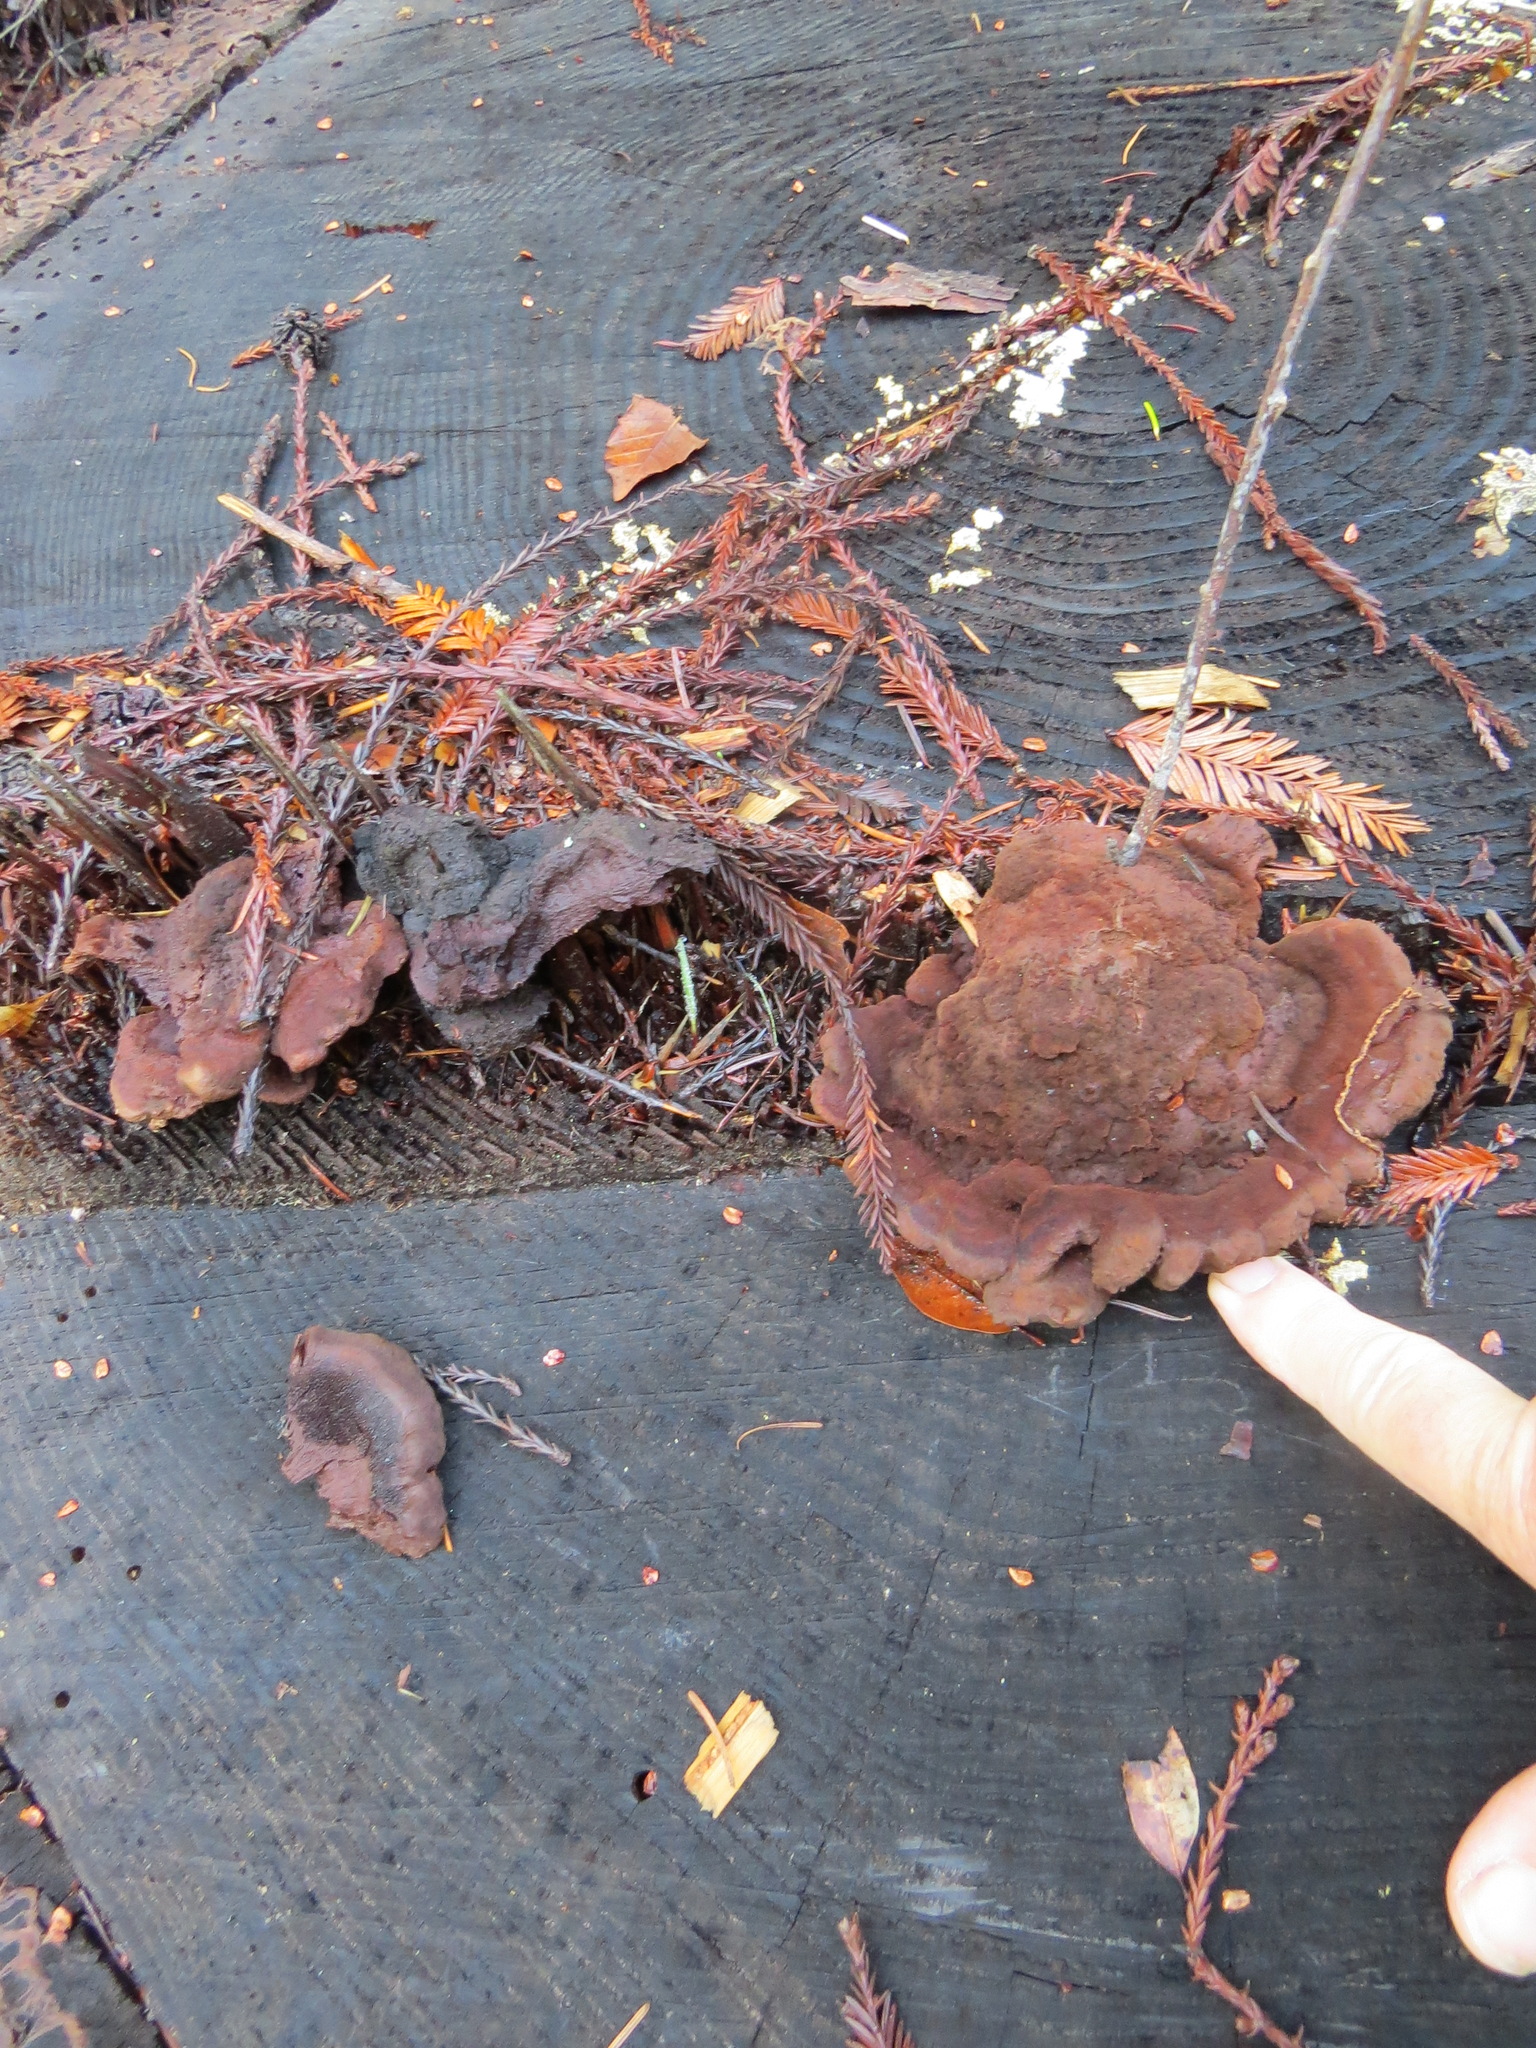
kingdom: Fungi
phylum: Basidiomycota
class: Agaricomycetes
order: Polyporales
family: Laetiporaceae
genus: Phaeolus
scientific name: Phaeolus schweinitzii
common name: Dyer's mazegill
